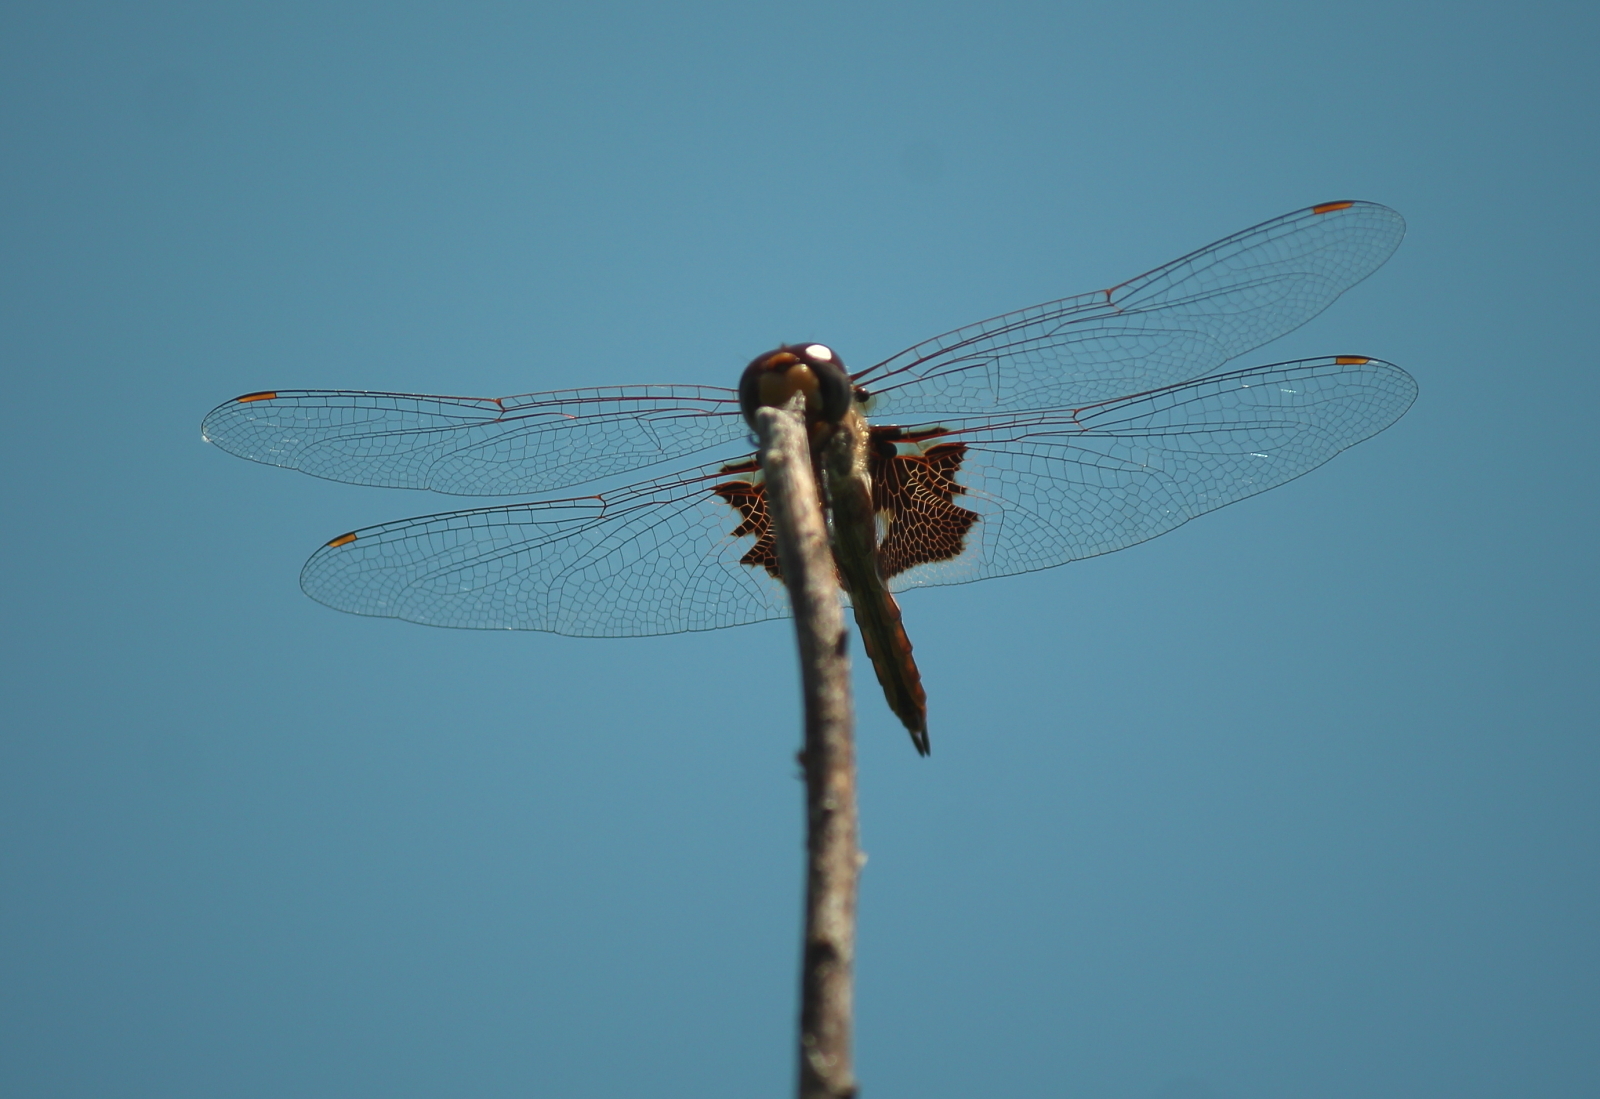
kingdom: Animalia
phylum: Arthropoda
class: Insecta
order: Odonata
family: Libellulidae
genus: Tramea
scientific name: Tramea onusta
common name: Red saddlebags
